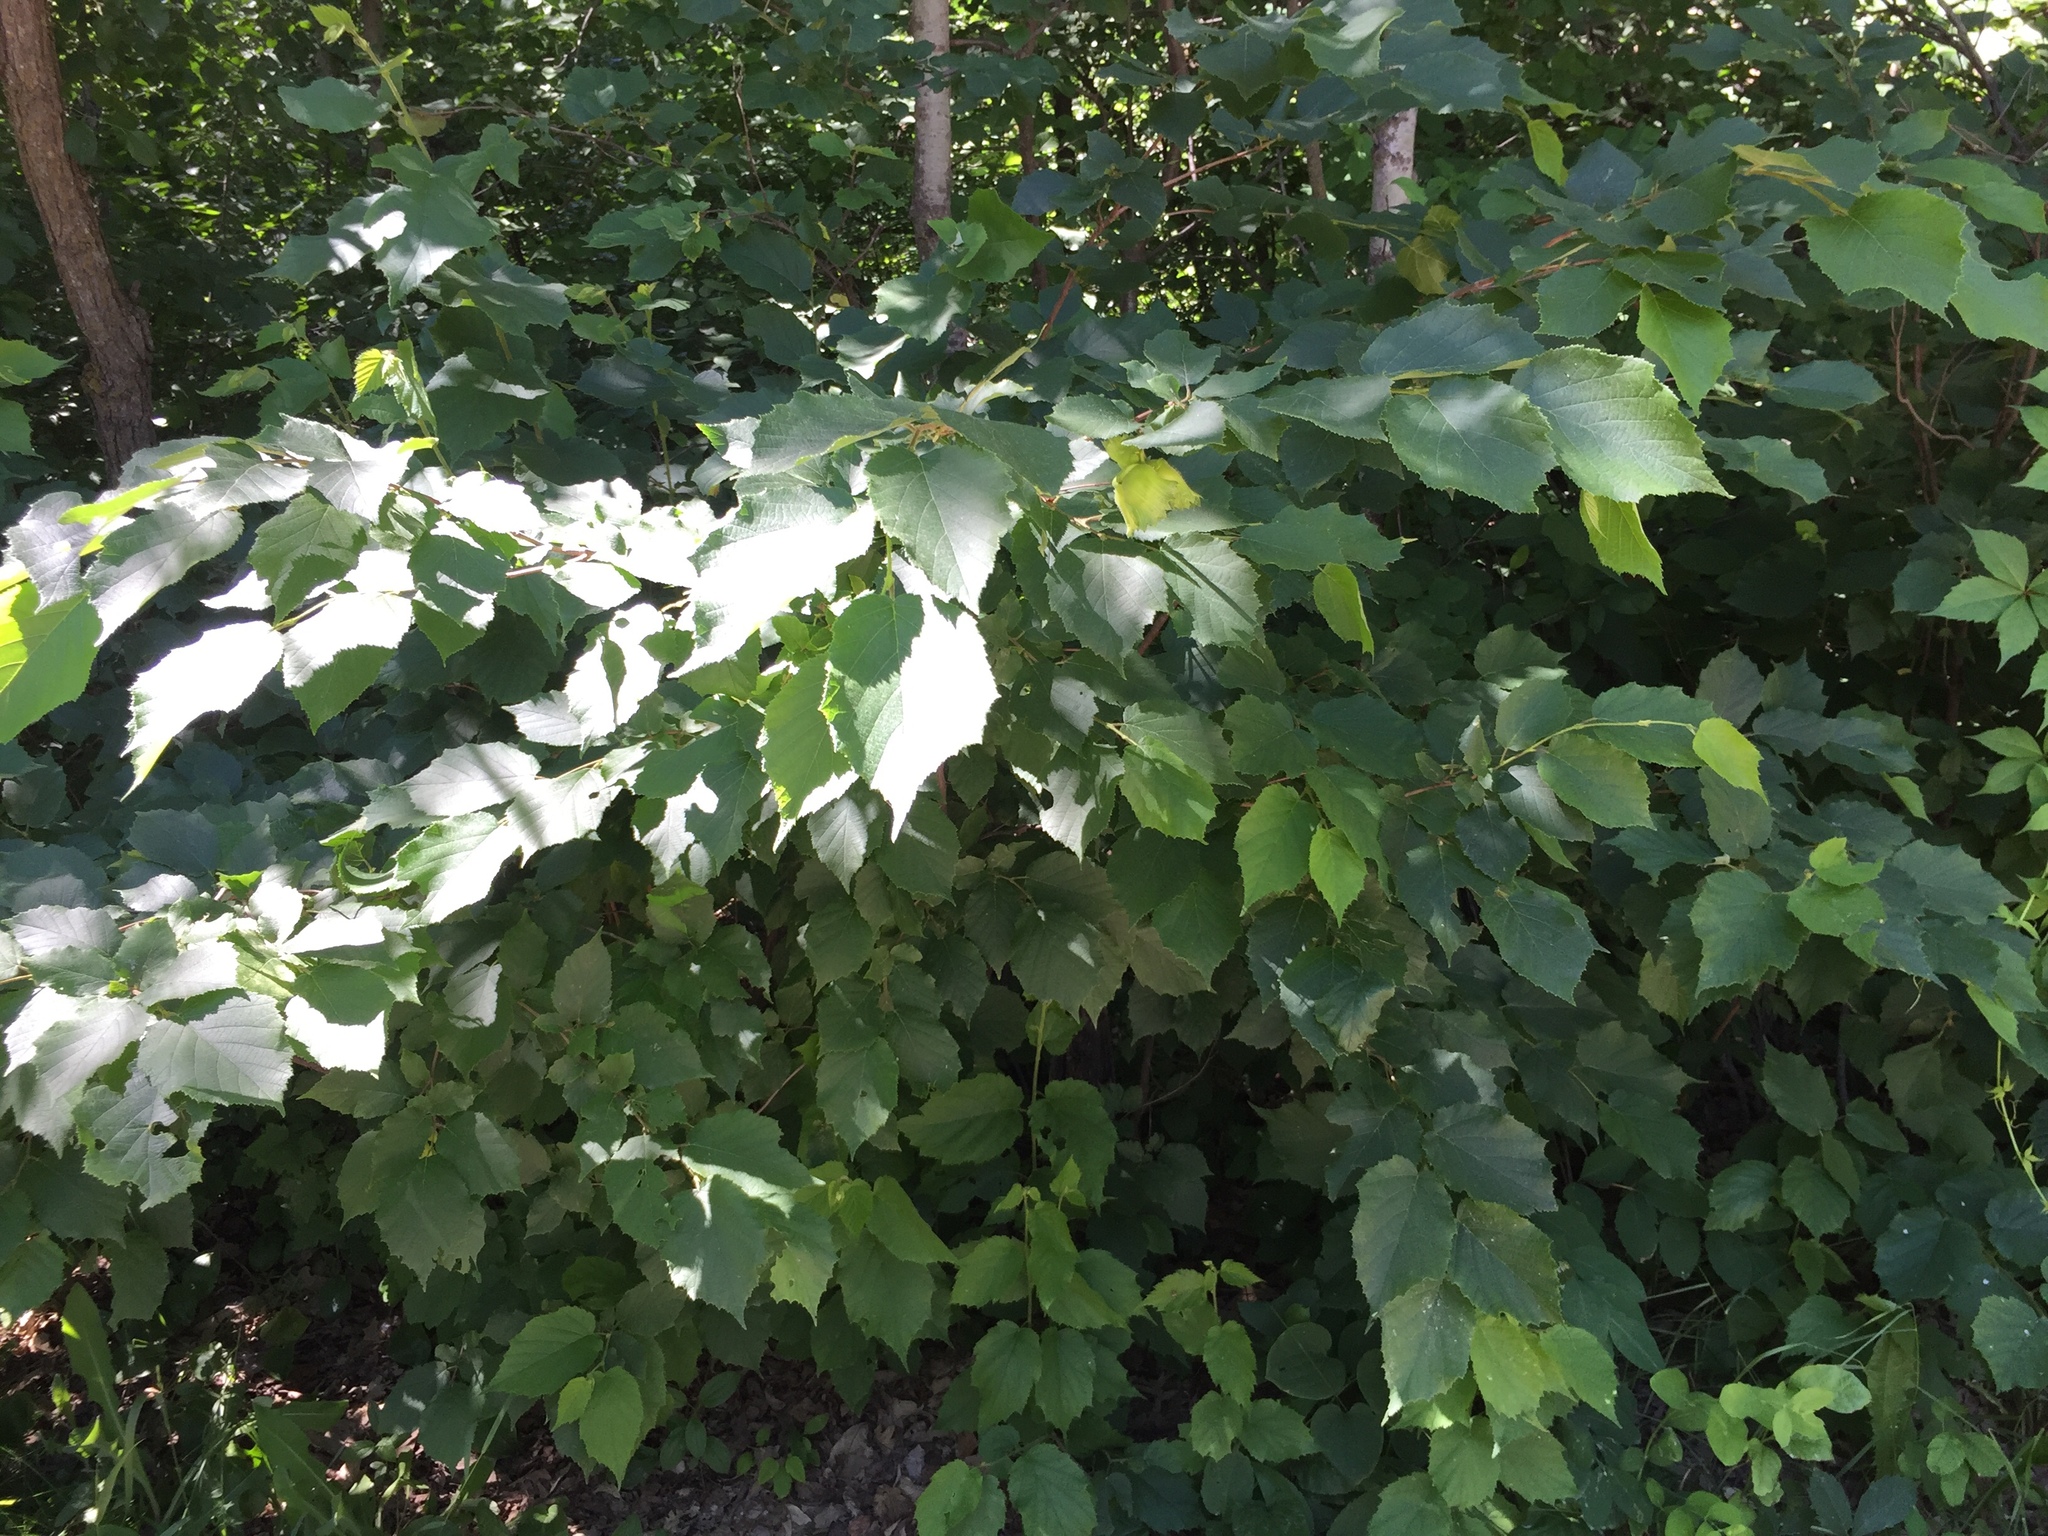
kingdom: Plantae
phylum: Tracheophyta
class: Magnoliopsida
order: Fagales
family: Betulaceae
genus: Corylus
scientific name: Corylus americana
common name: American hazel
